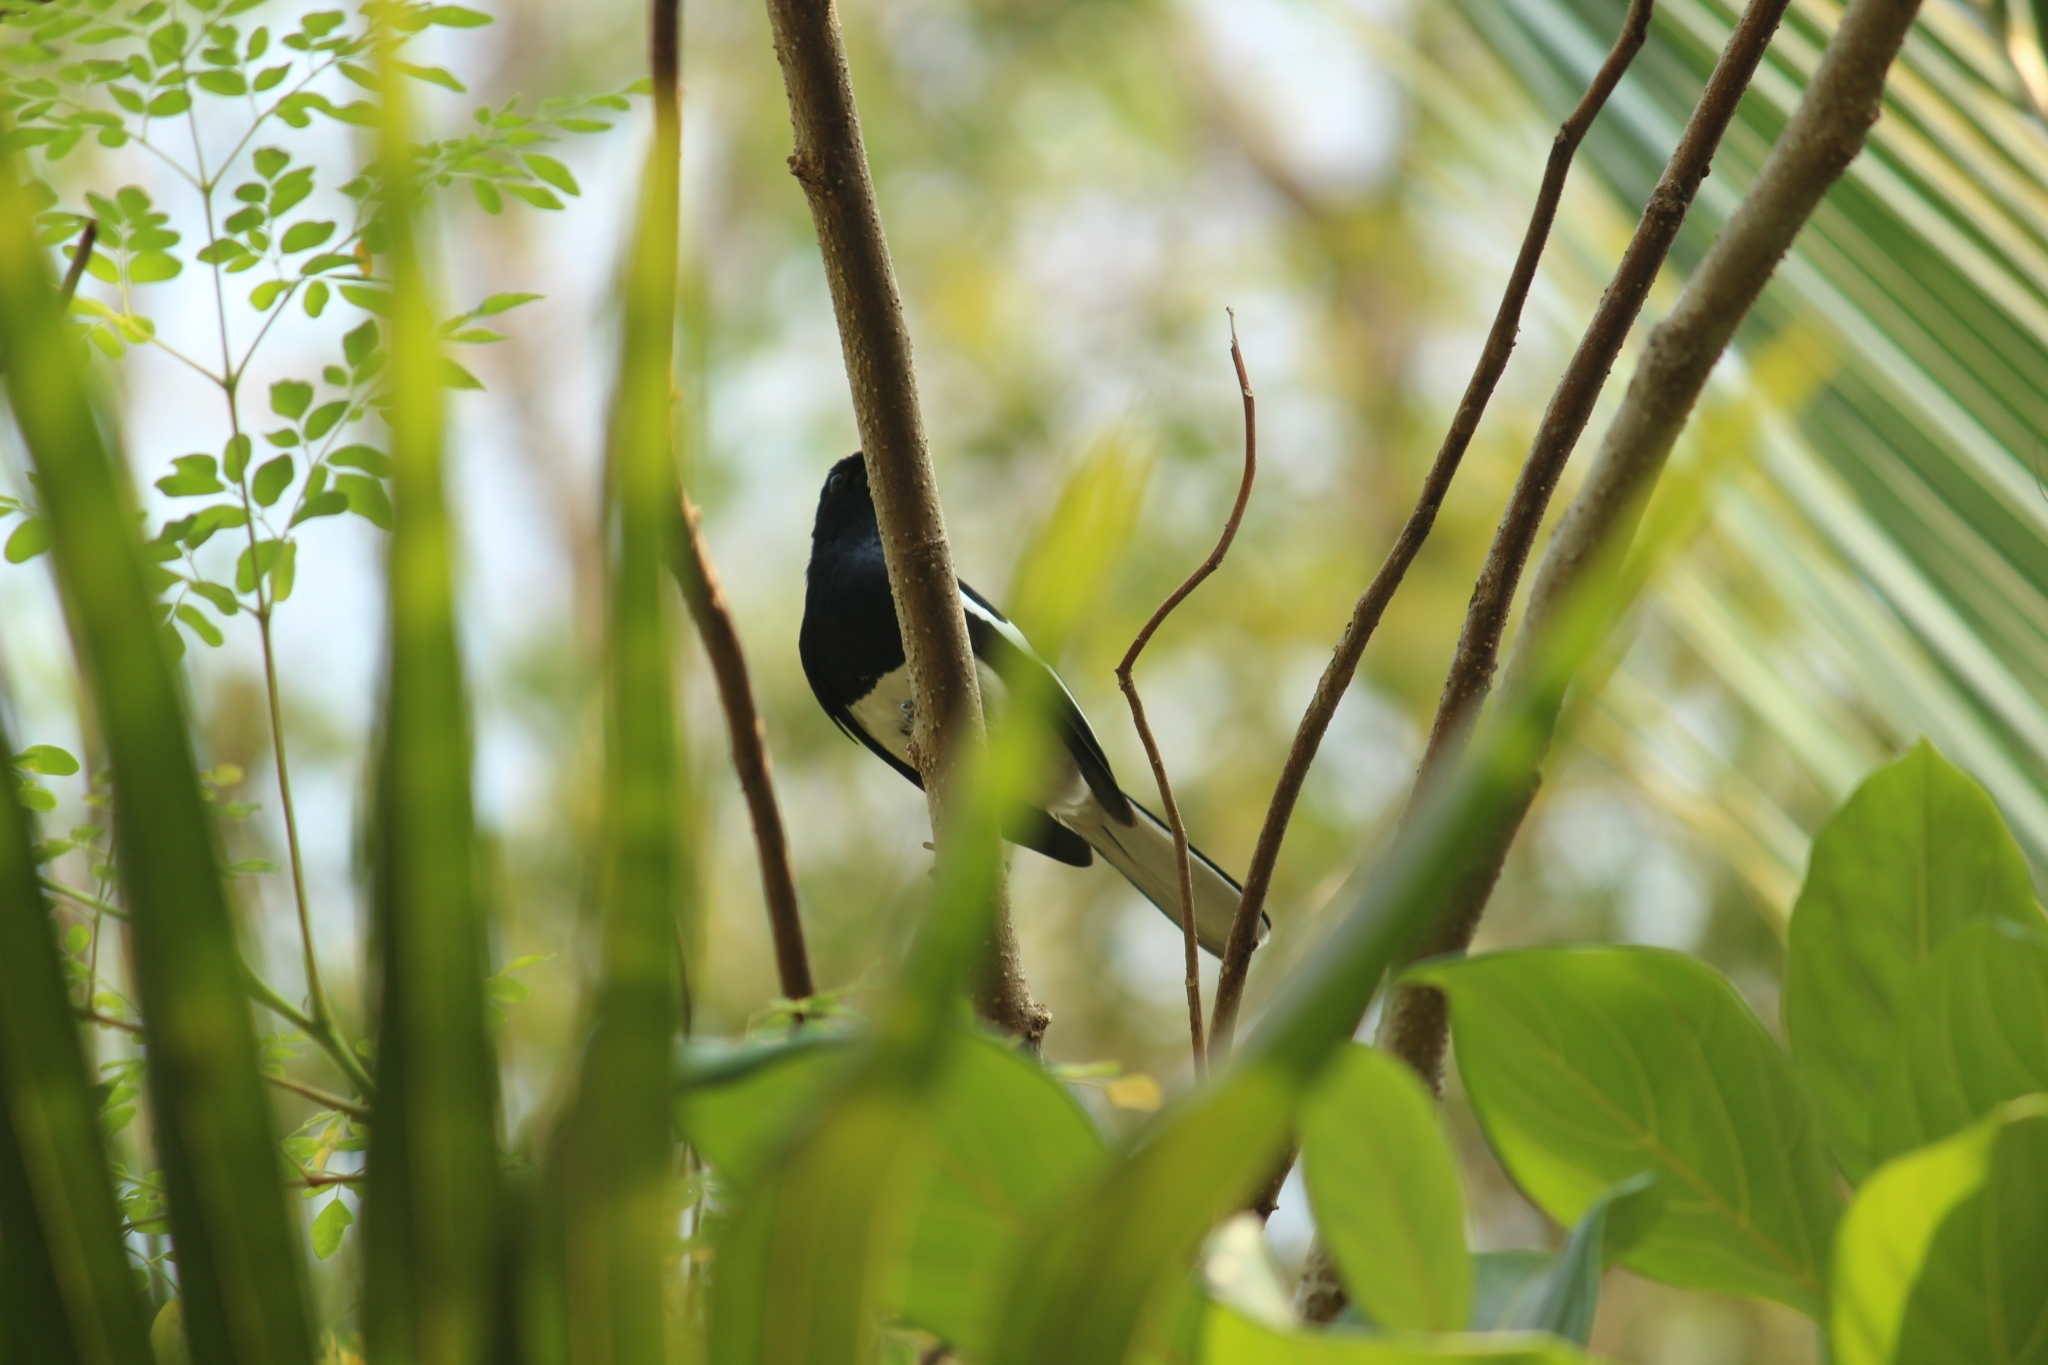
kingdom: Animalia
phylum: Chordata
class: Aves
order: Passeriformes
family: Muscicapidae
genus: Copsychus
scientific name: Copsychus saularis
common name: Oriental magpie-robin
